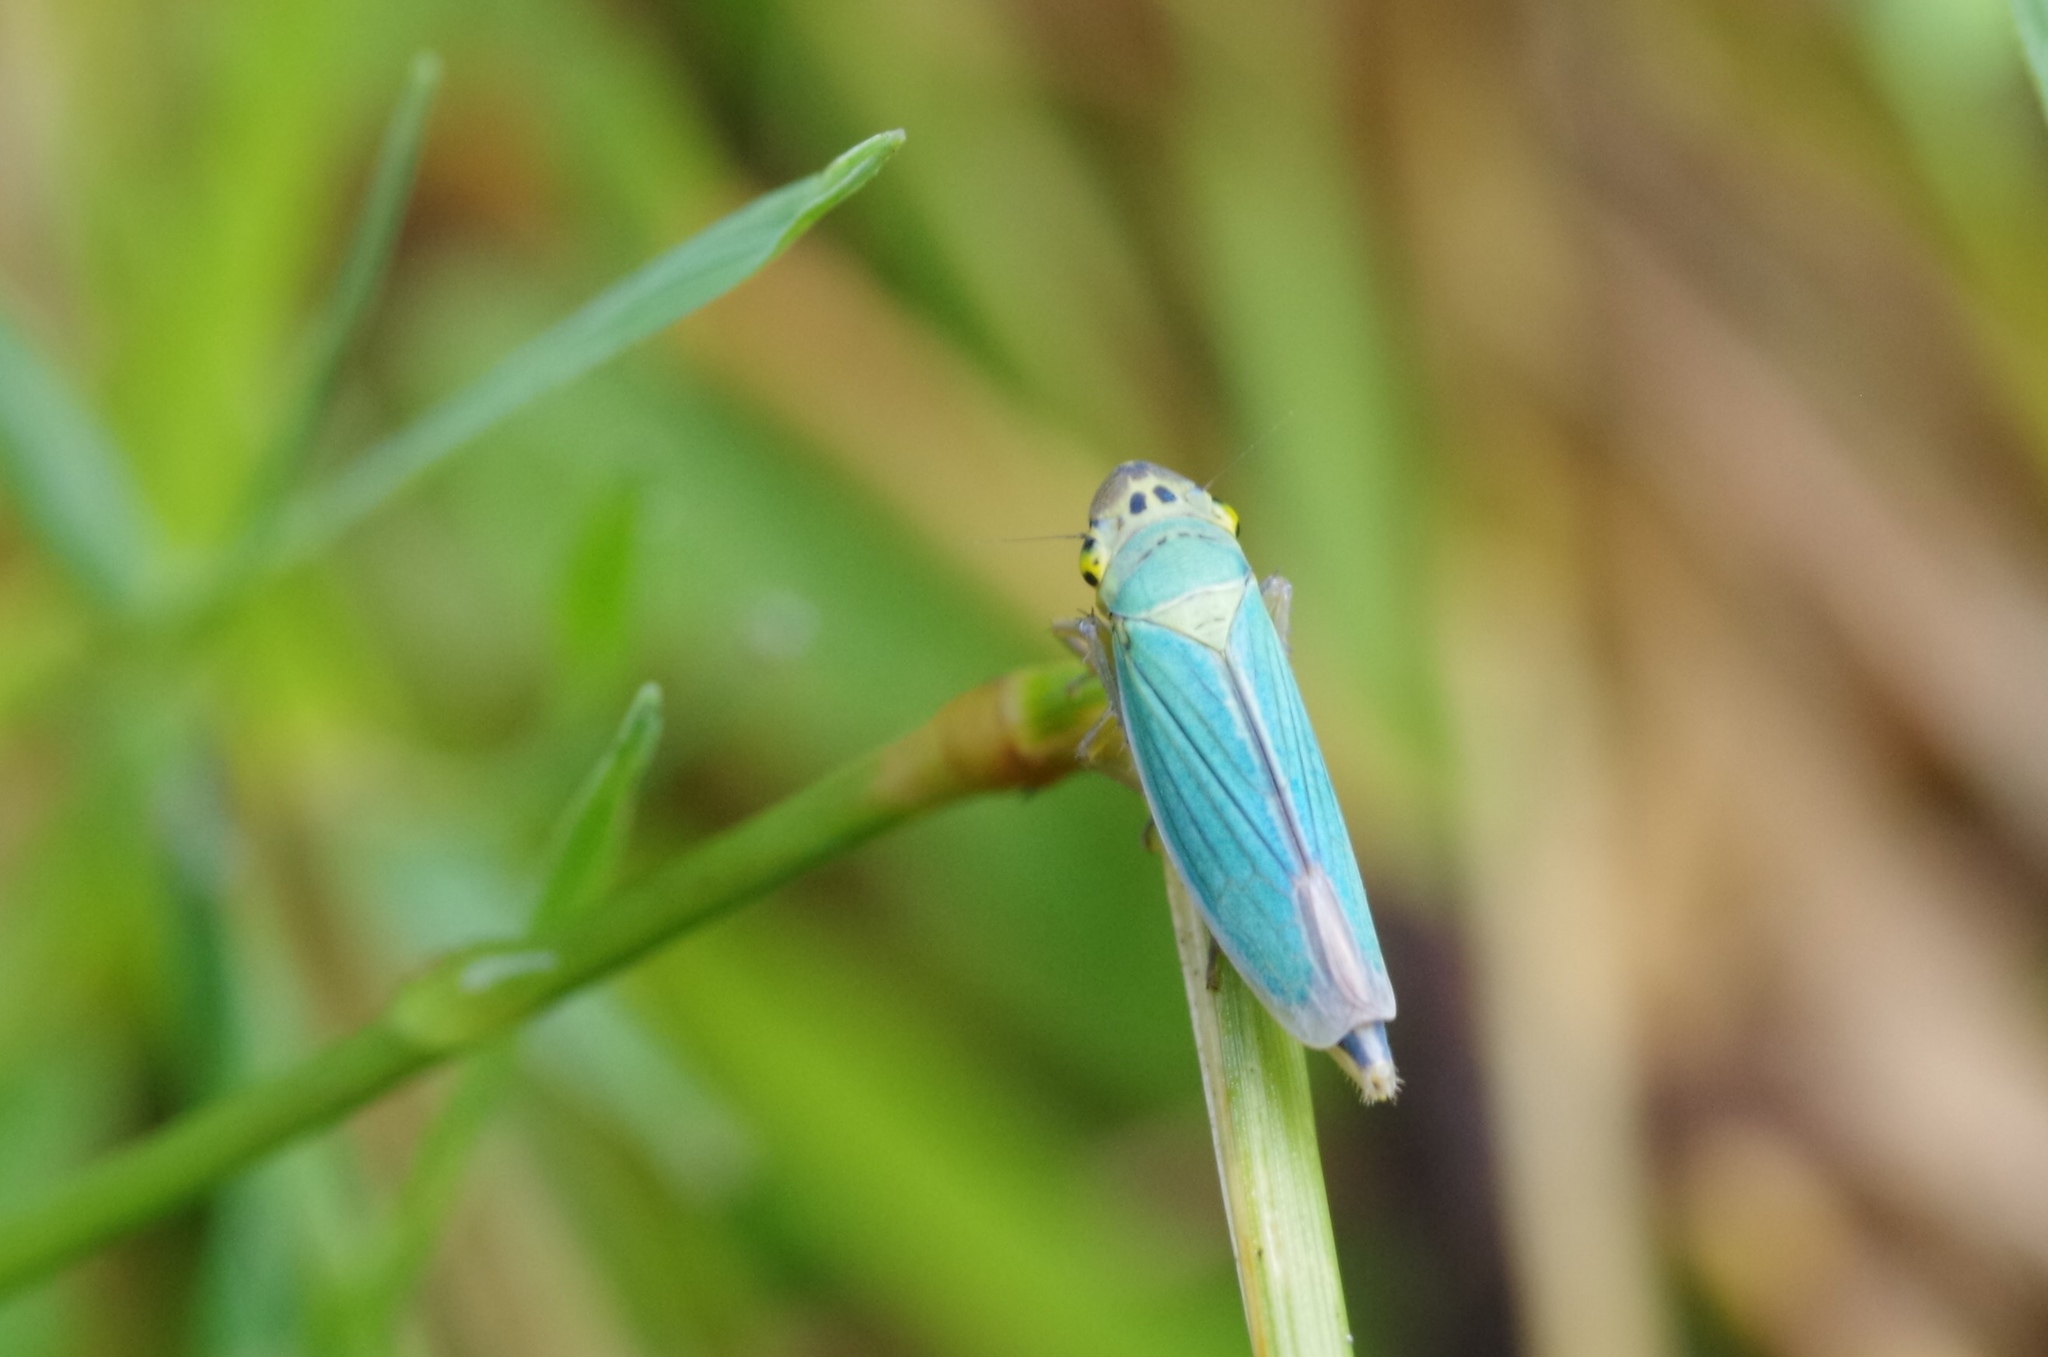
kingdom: Animalia
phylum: Arthropoda
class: Insecta
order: Hemiptera
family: Cicadellidae
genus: Cicadella
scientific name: Cicadella viridis
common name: Leafhopper
